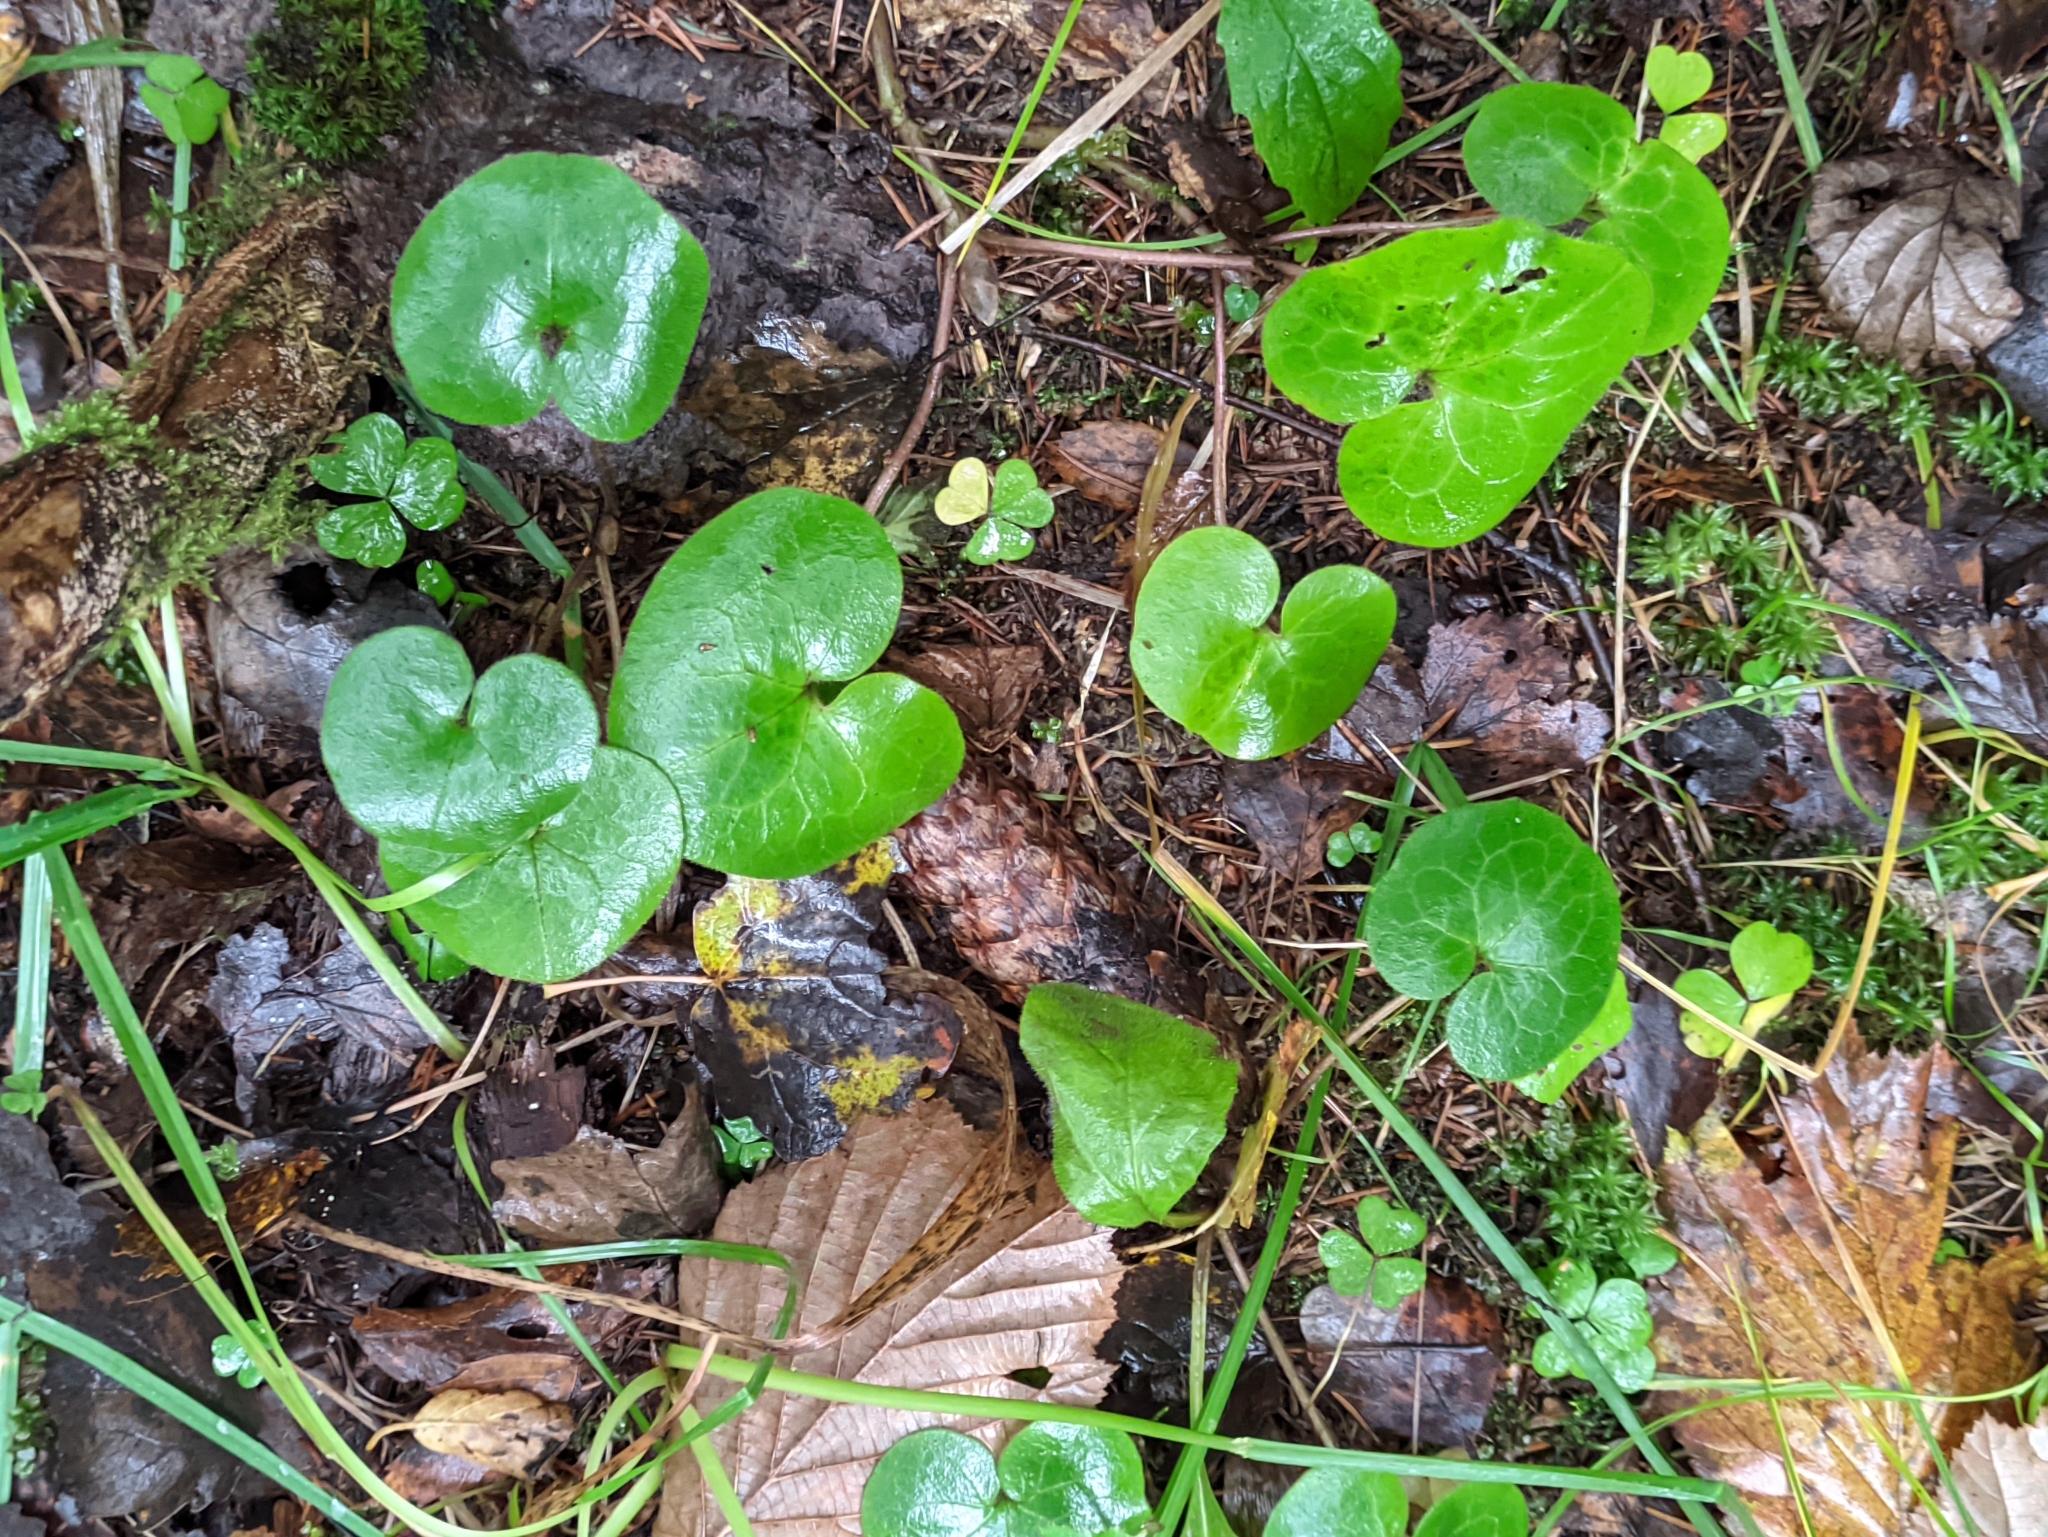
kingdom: Plantae
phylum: Tracheophyta
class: Magnoliopsida
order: Piperales
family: Aristolochiaceae
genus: Asarum
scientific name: Asarum europaeum
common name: Asarabacca
